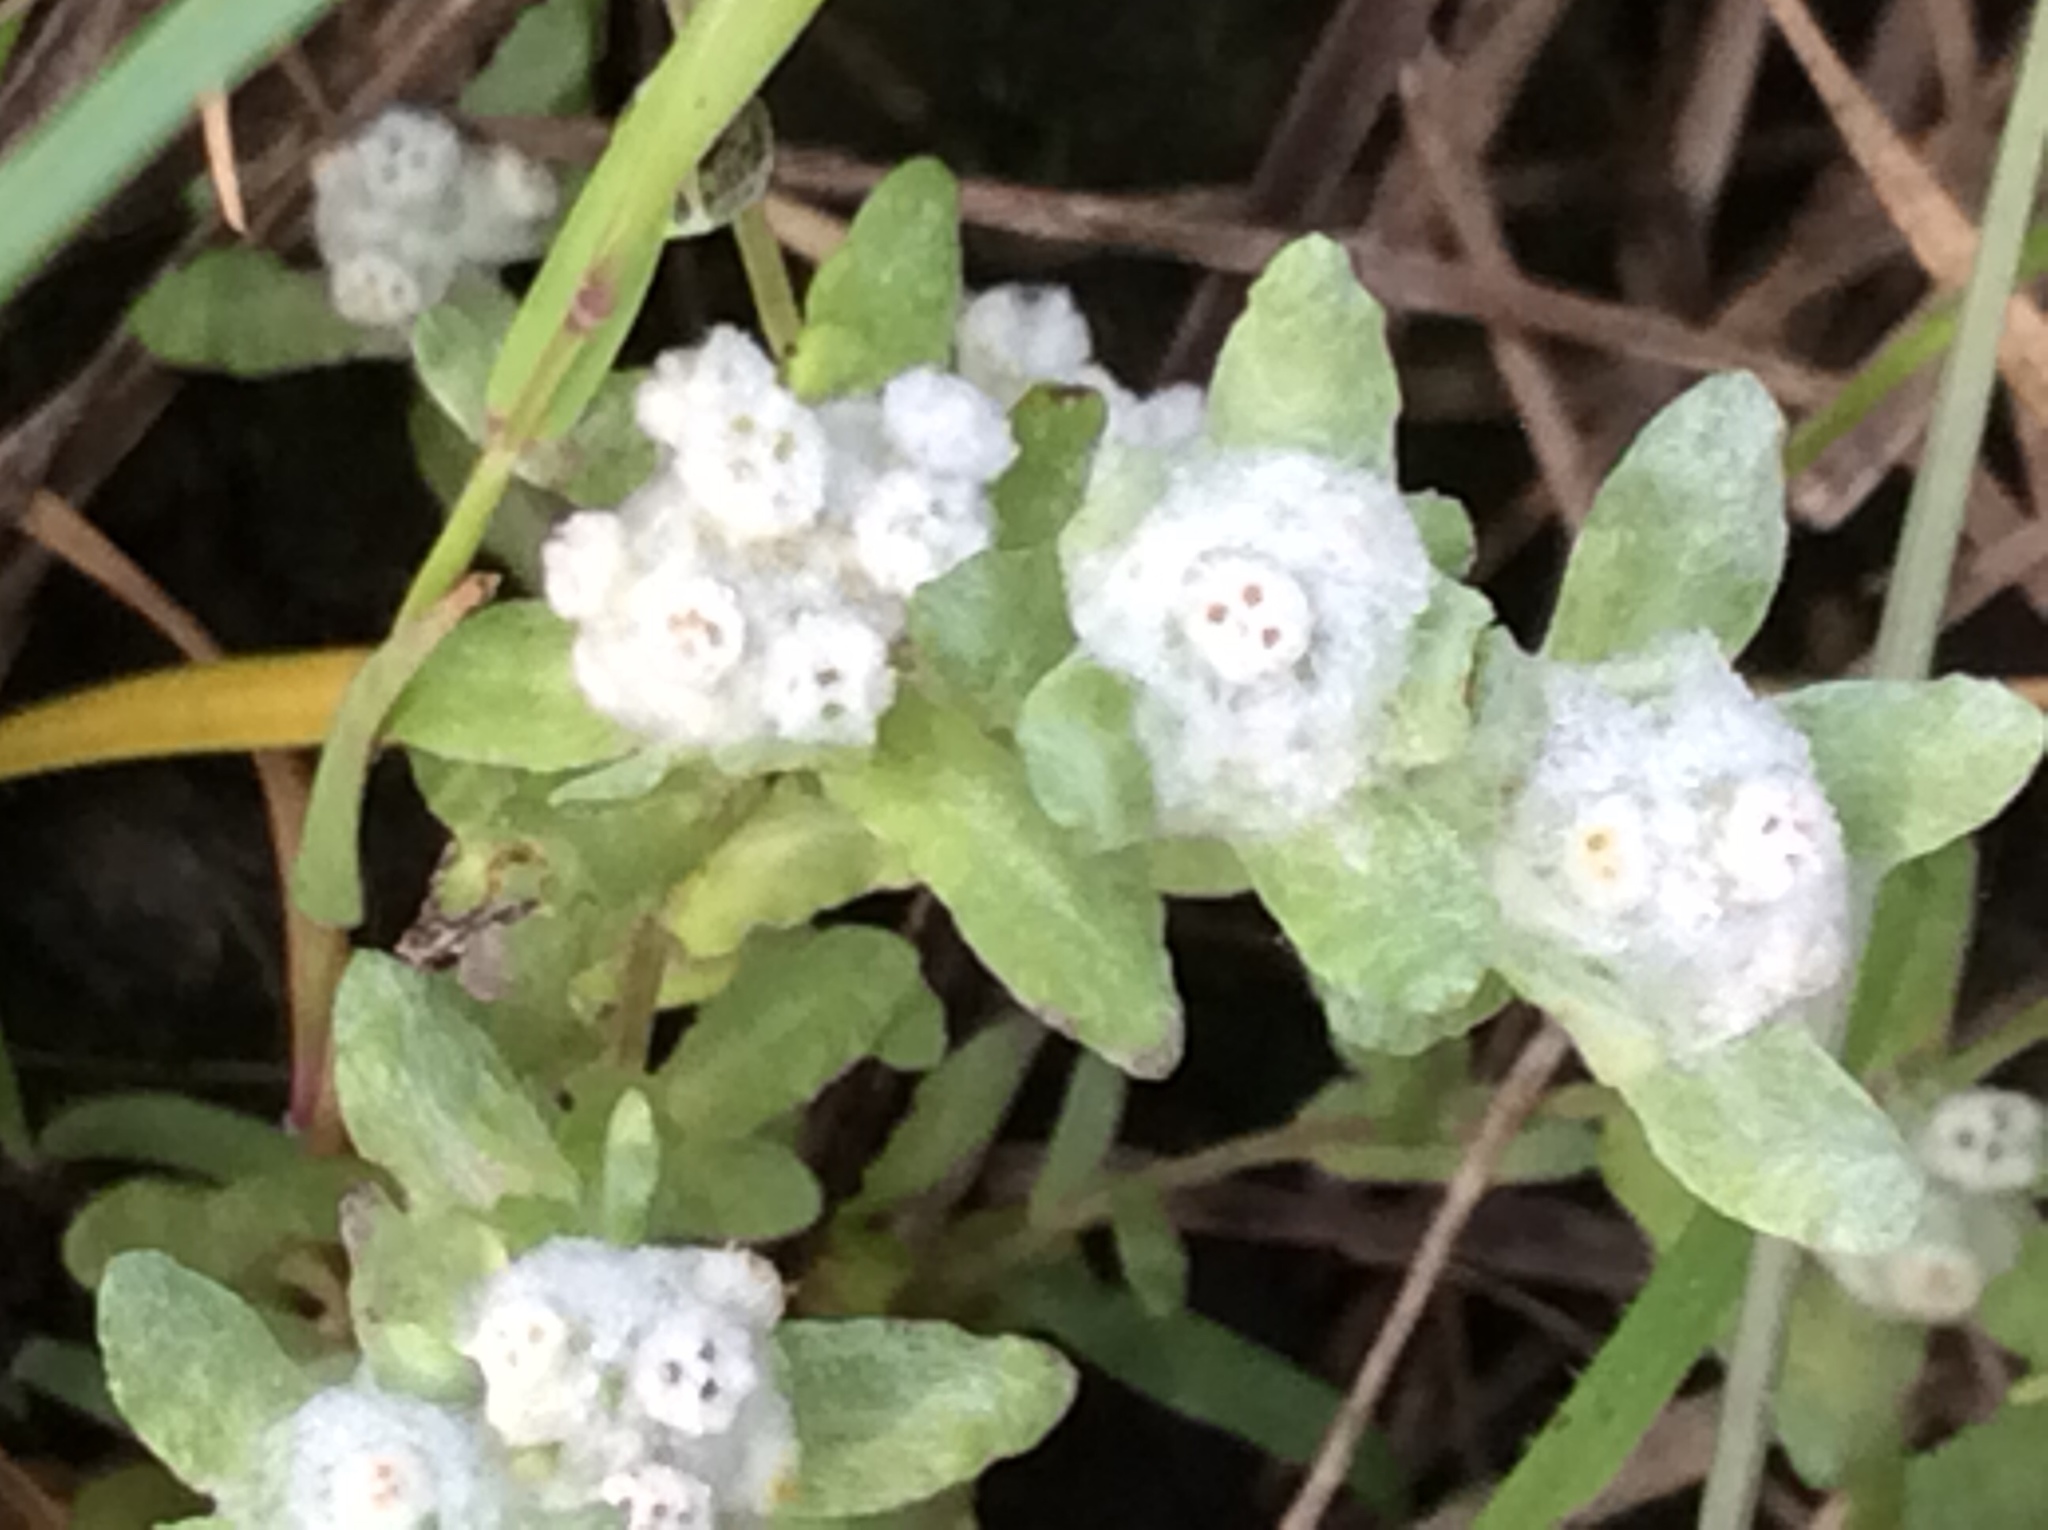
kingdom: Plantae
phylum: Tracheophyta
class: Magnoliopsida
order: Asterales
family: Asteraceae
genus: Diaperia
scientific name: Diaperia verna
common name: Many-stem rabbit-tobacco
